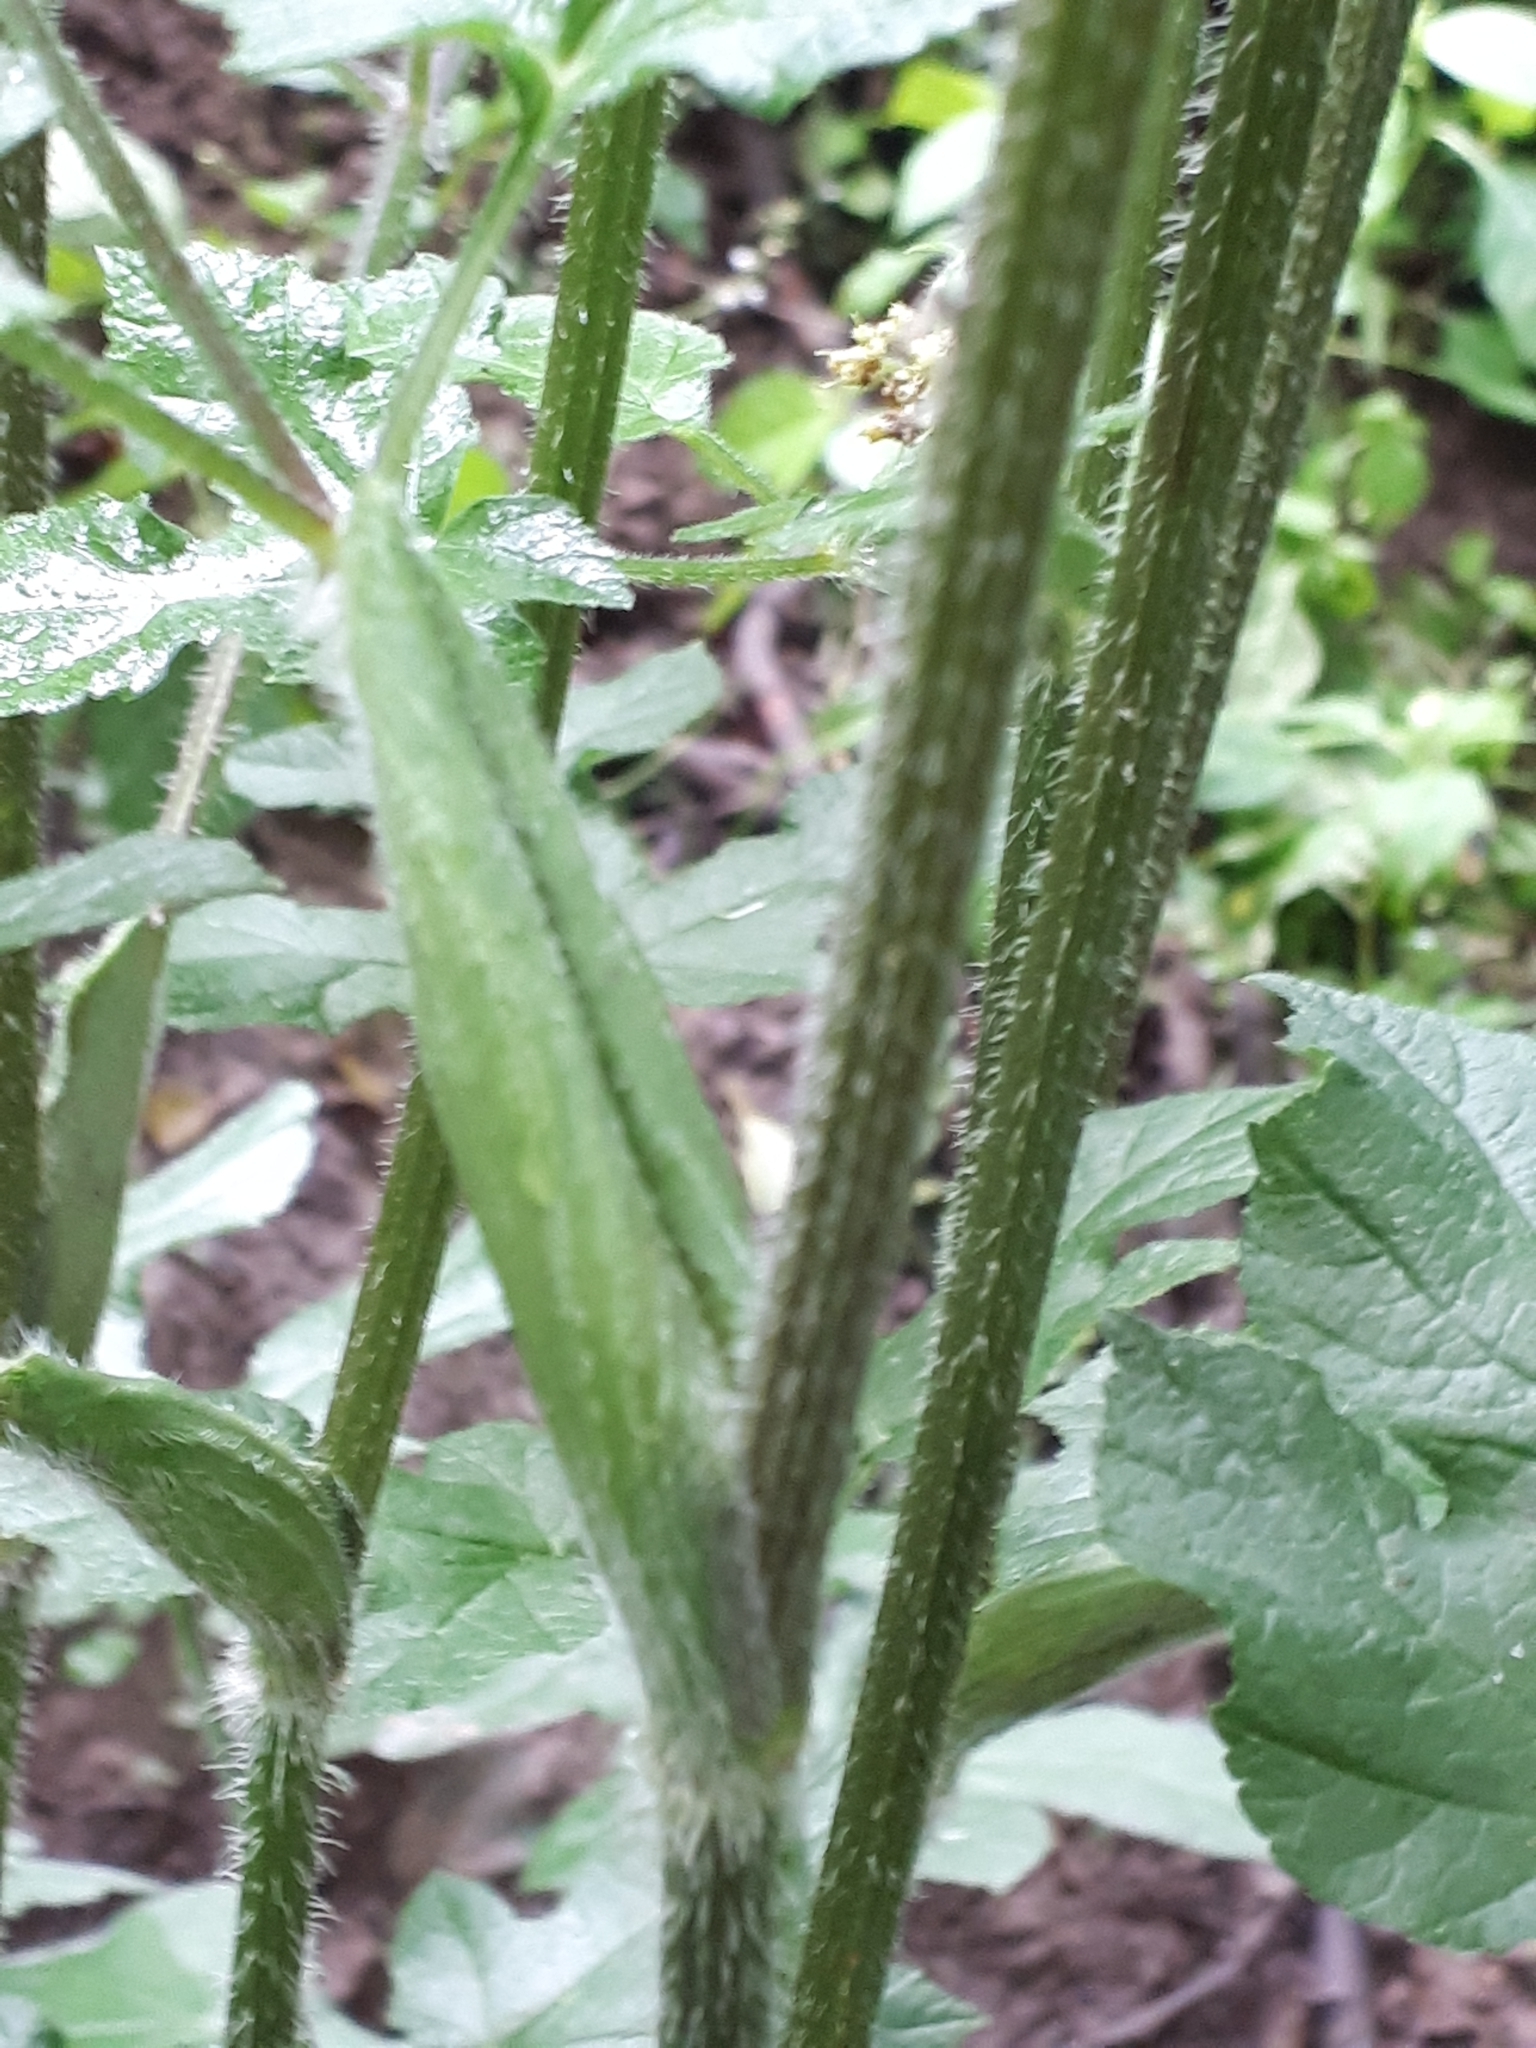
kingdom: Plantae
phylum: Tracheophyta
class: Magnoliopsida
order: Apiales
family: Apiaceae
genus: Heracleum
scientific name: Heracleum sphondylium
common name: Hogweed
